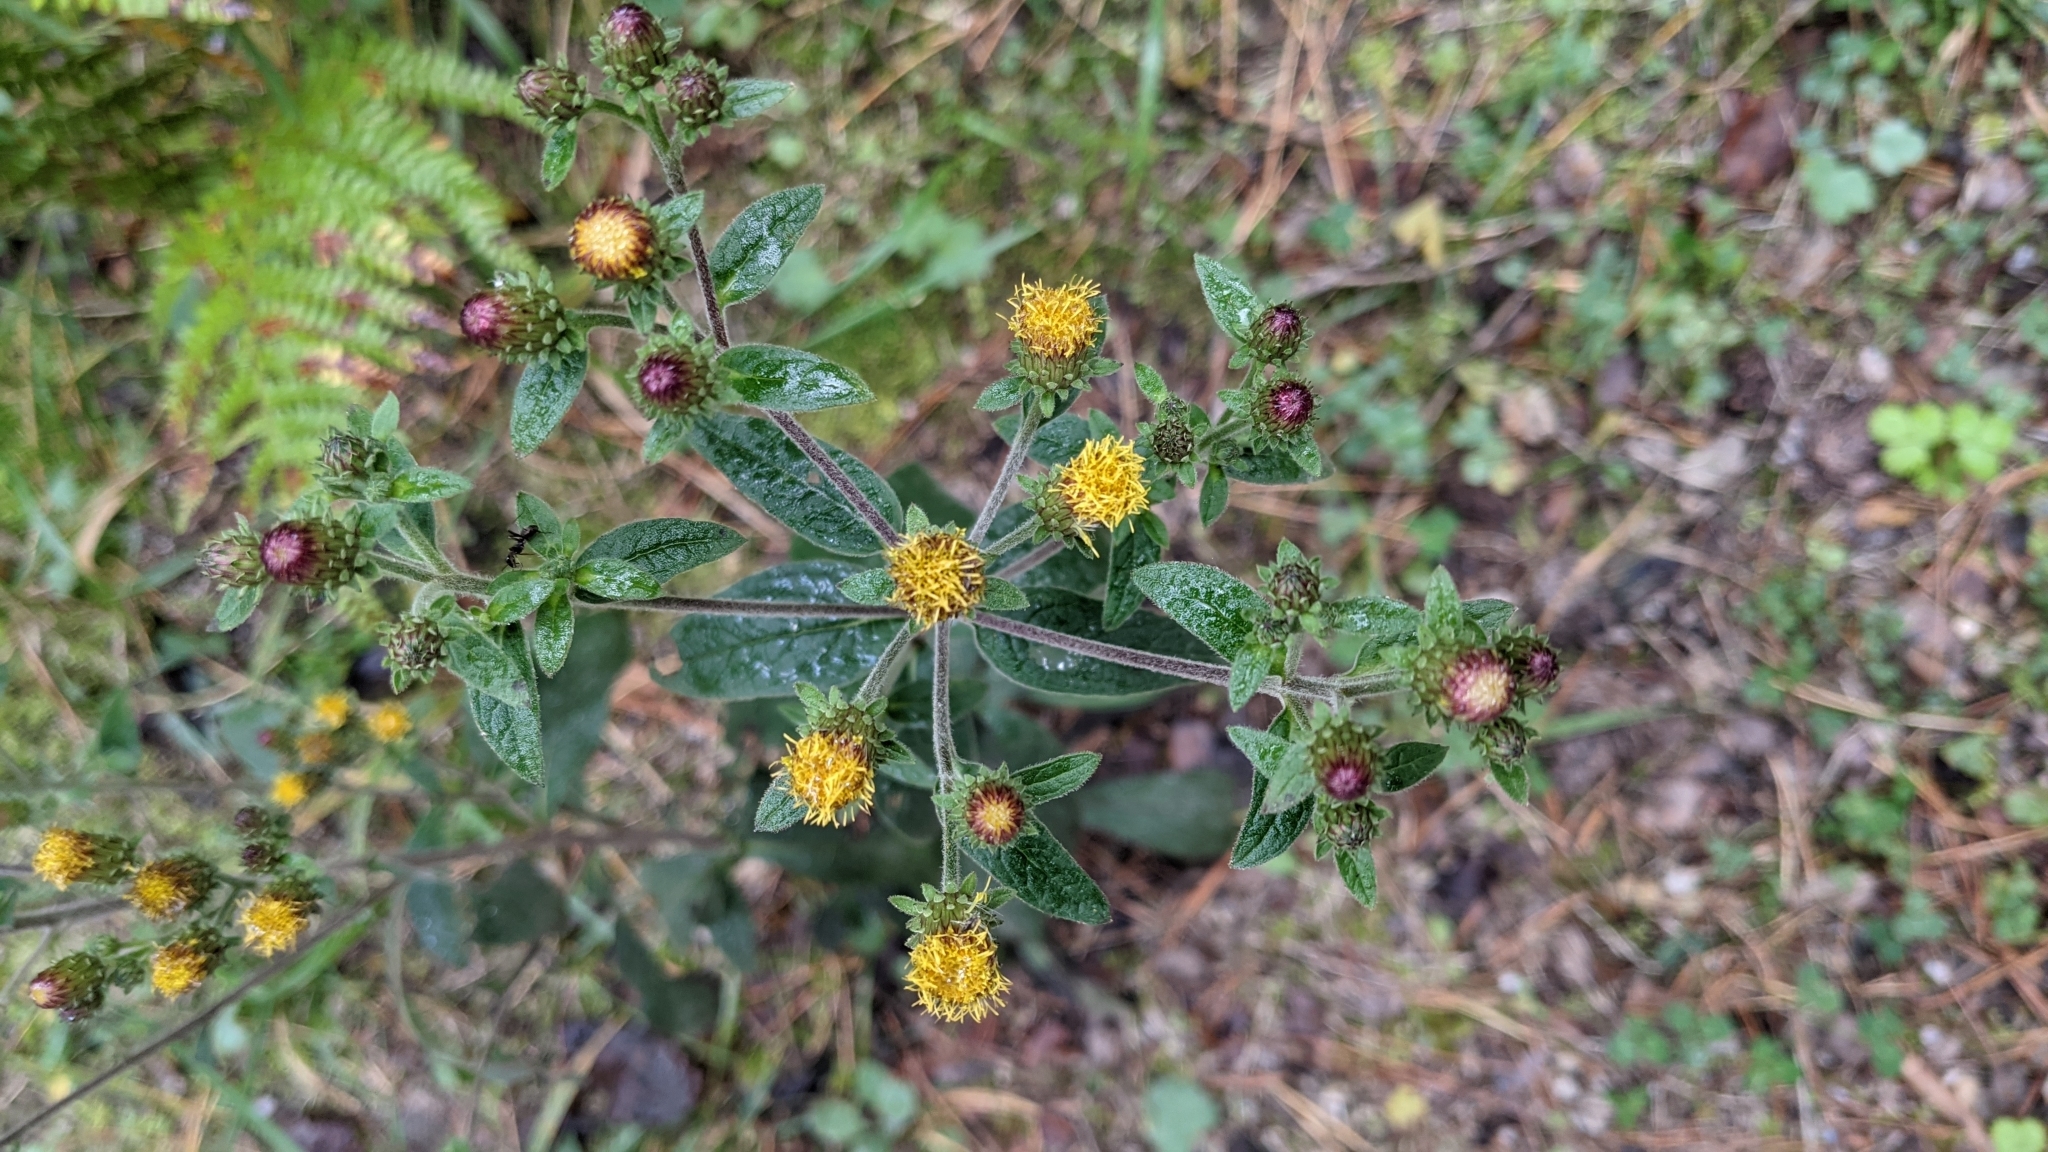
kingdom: Plantae
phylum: Tracheophyta
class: Magnoliopsida
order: Asterales
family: Asteraceae
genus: Pentanema
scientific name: Pentanema squarrosum
